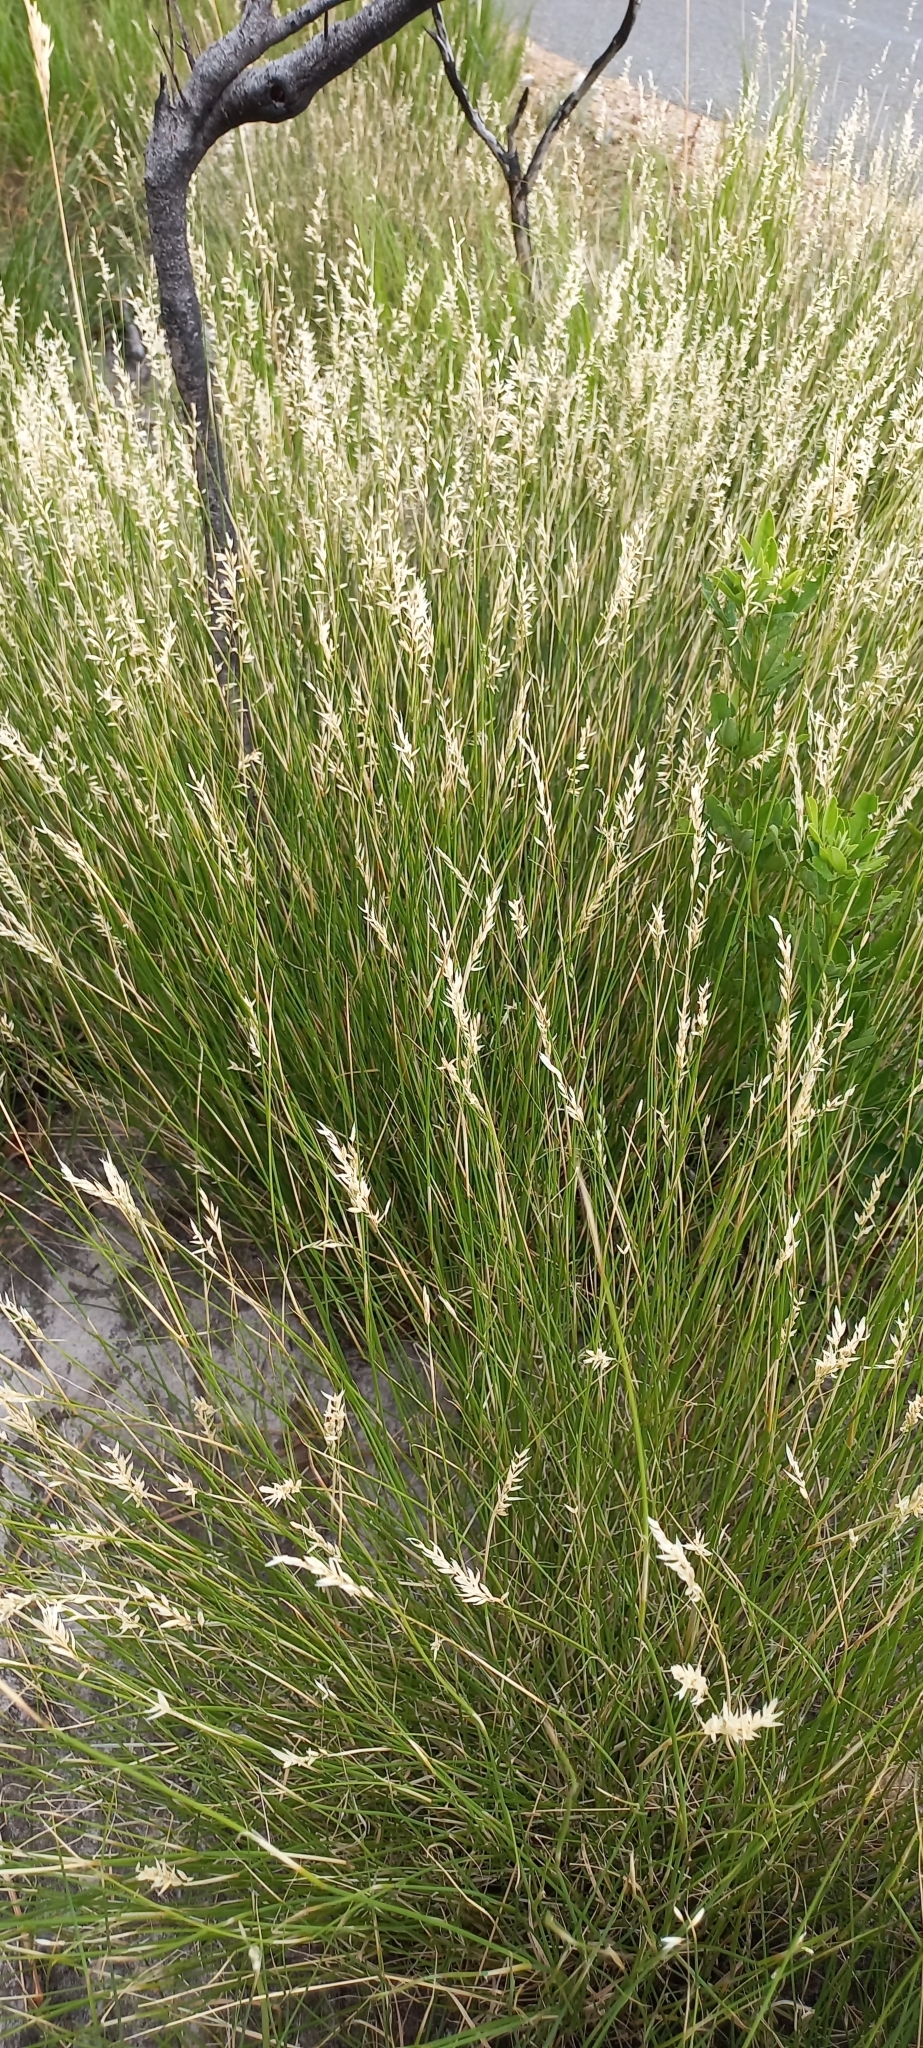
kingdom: Plantae
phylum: Tracheophyta
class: Liliopsida
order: Poales
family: Poaceae
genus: Ehrharta
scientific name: Ehrharta villosa
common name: Pyp grass
